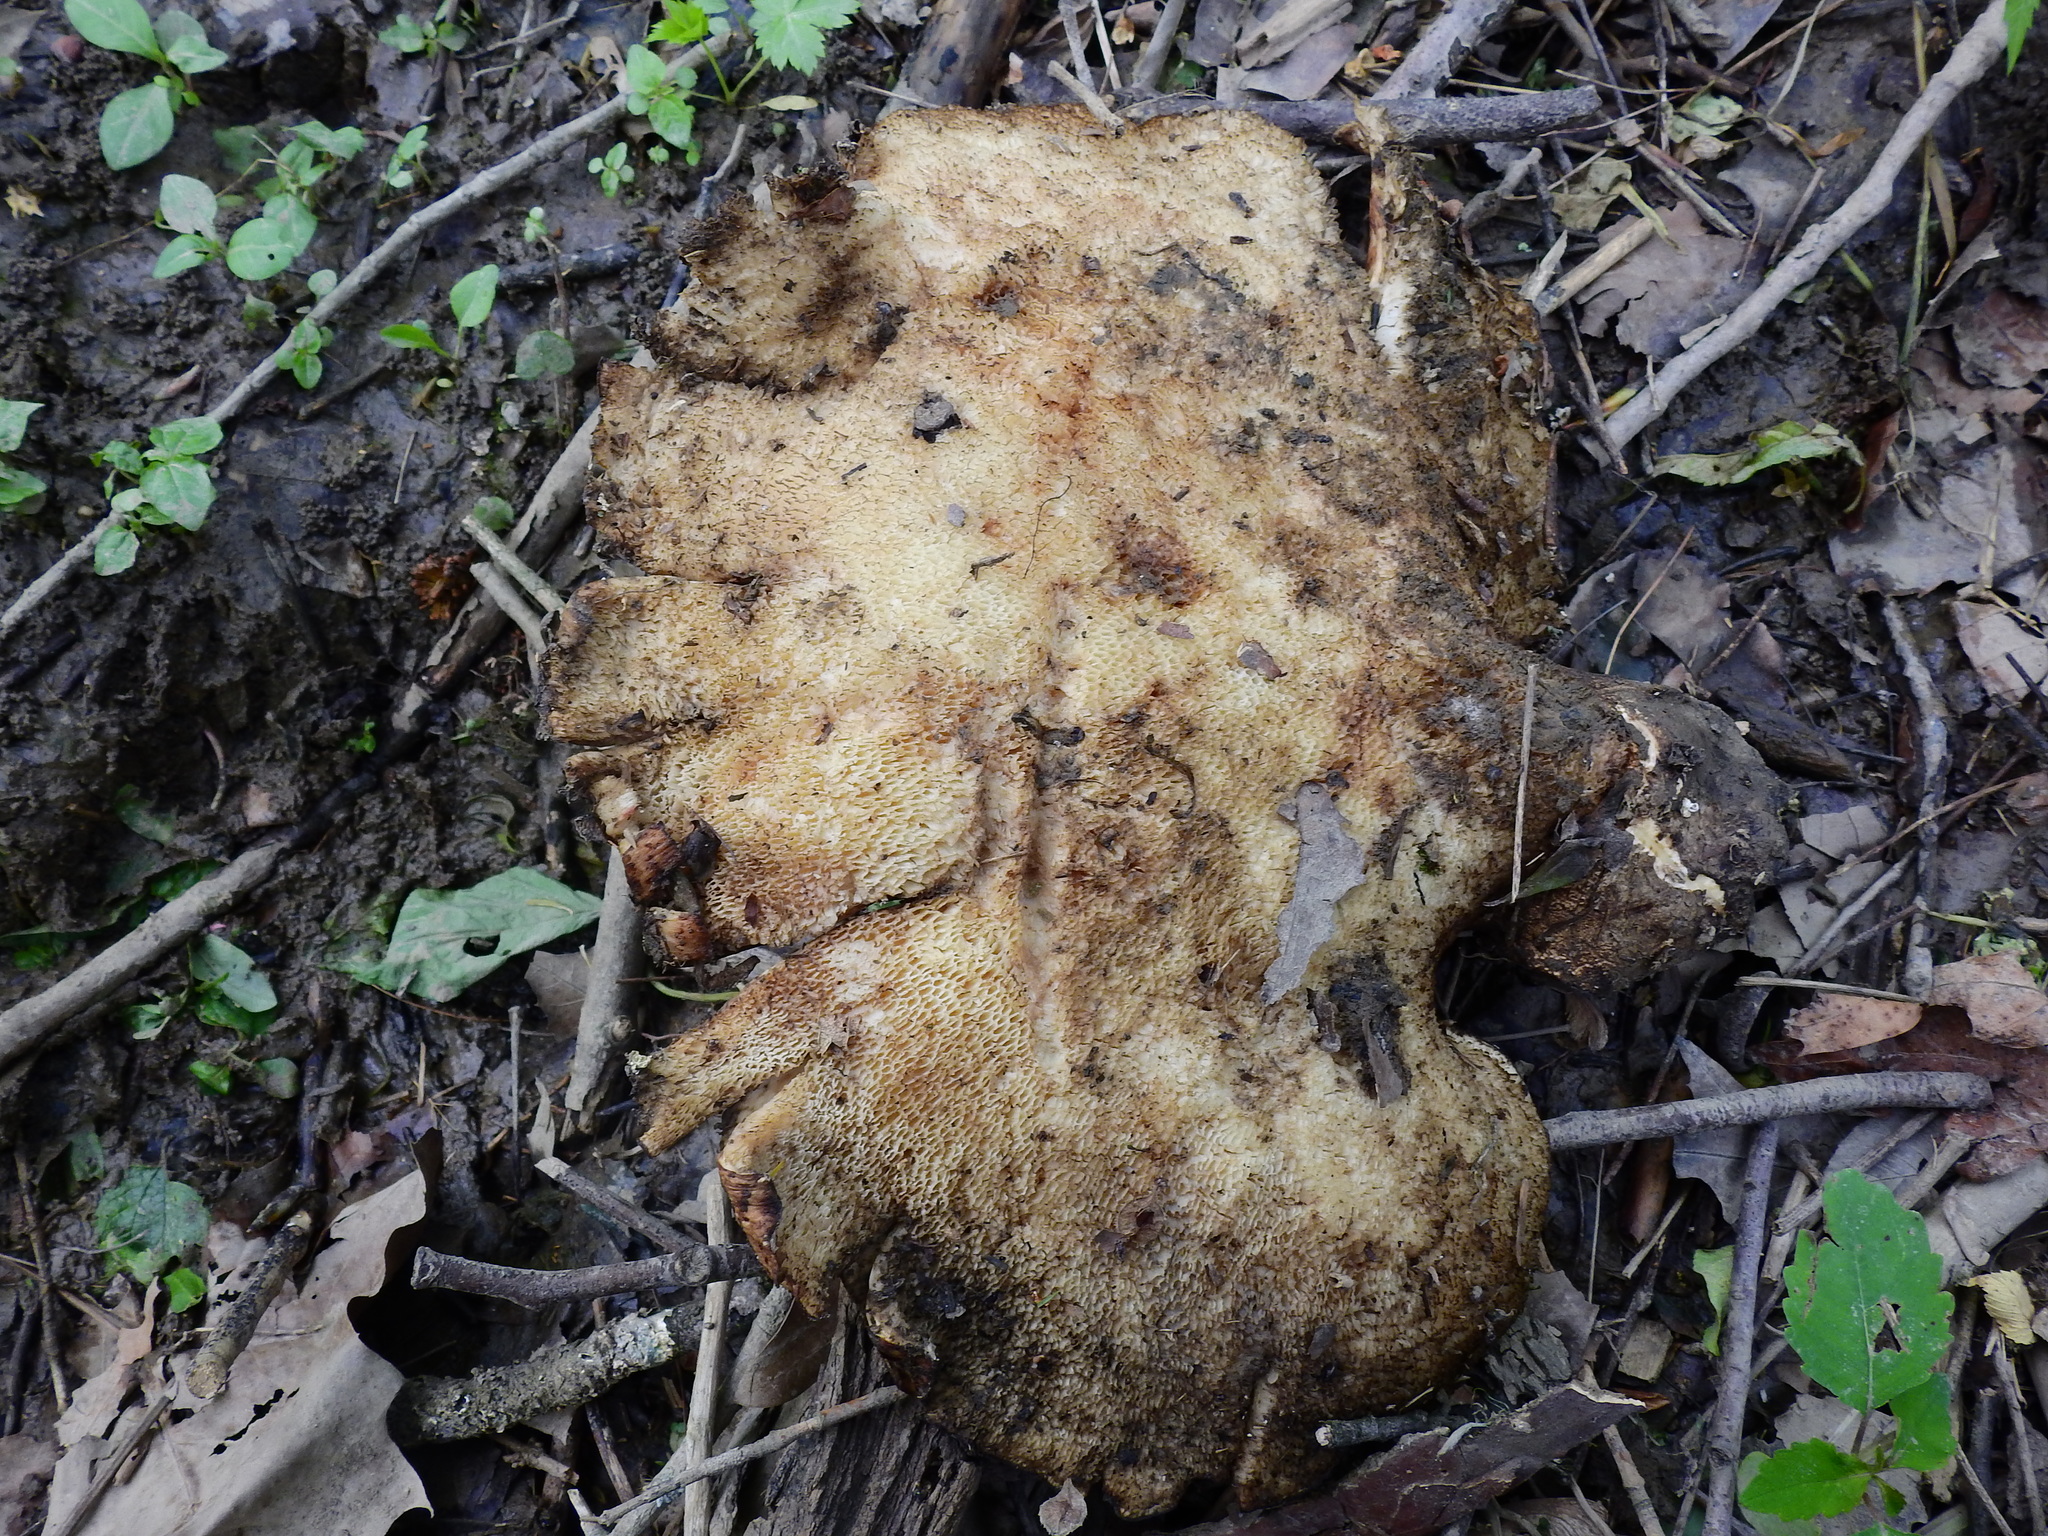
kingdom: Fungi
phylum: Basidiomycota
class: Agaricomycetes
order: Polyporales
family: Polyporaceae
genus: Cerioporus
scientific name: Cerioporus squamosus
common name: Dryad's saddle
